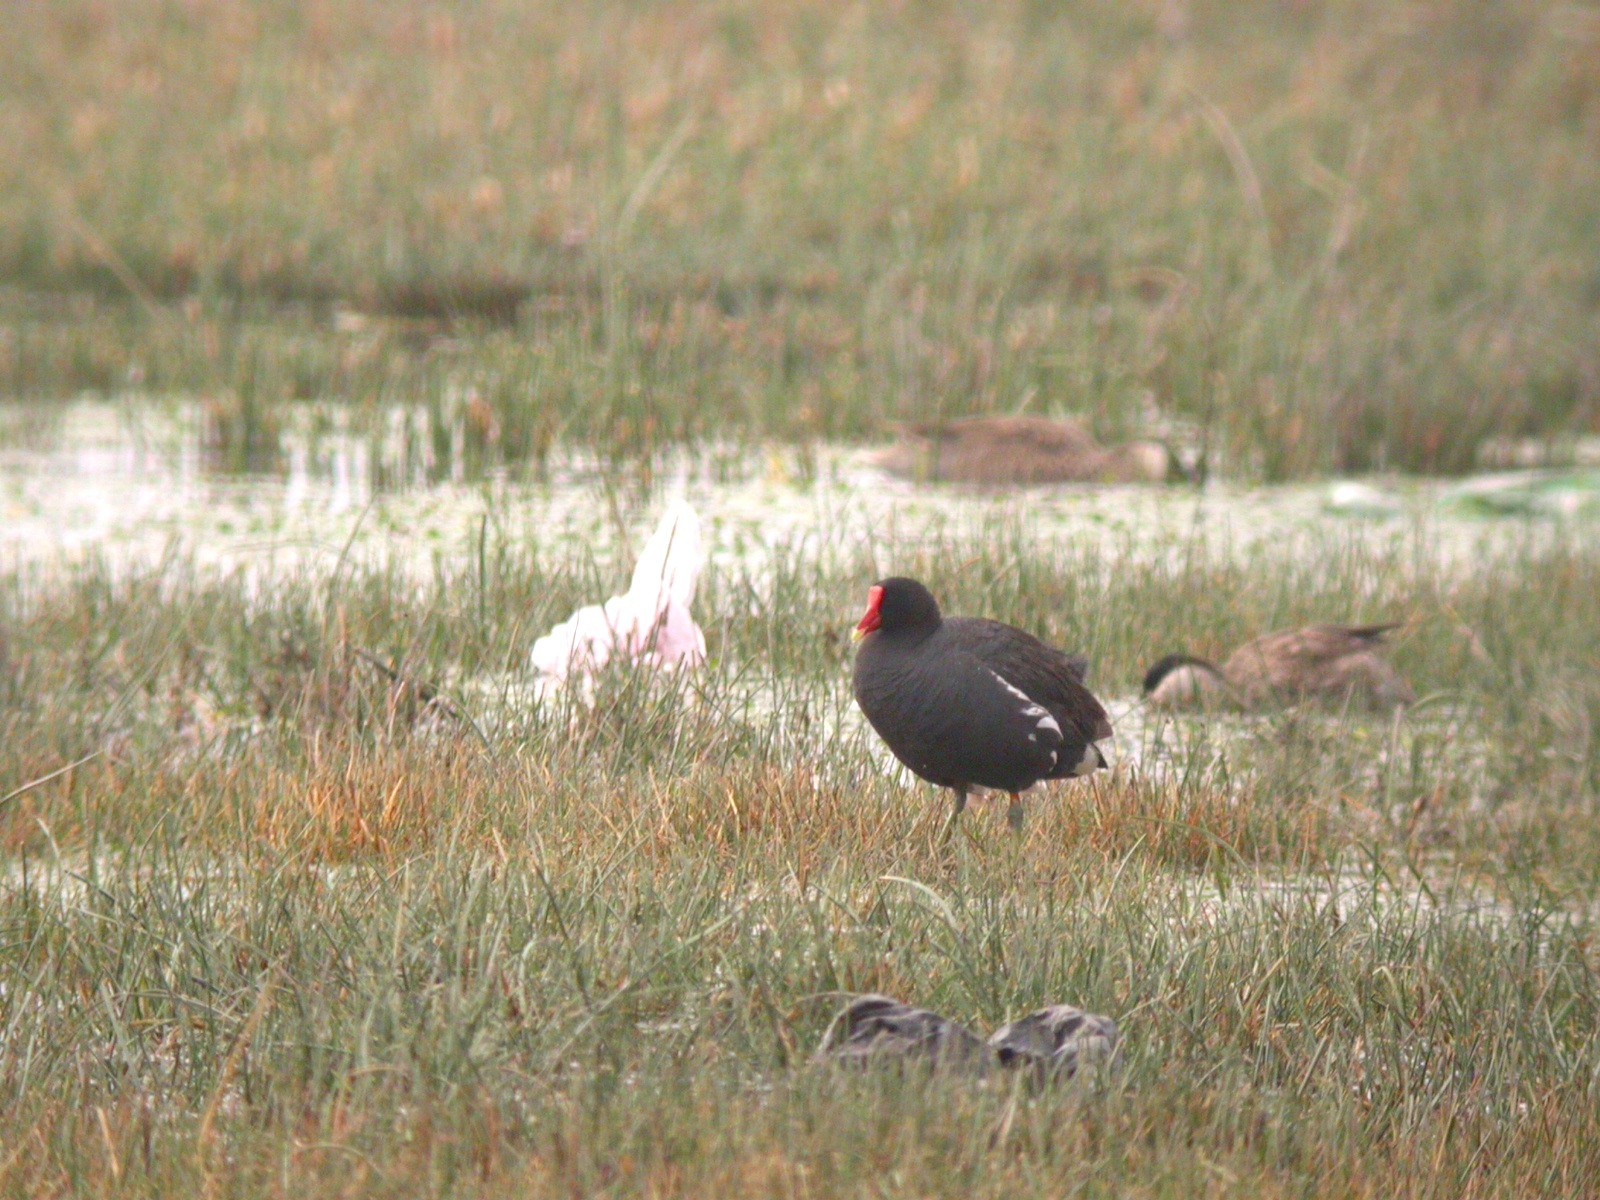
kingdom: Animalia
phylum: Chordata
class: Aves
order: Gruiformes
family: Rallidae
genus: Gallinula
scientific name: Gallinula chloropus
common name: Common moorhen
